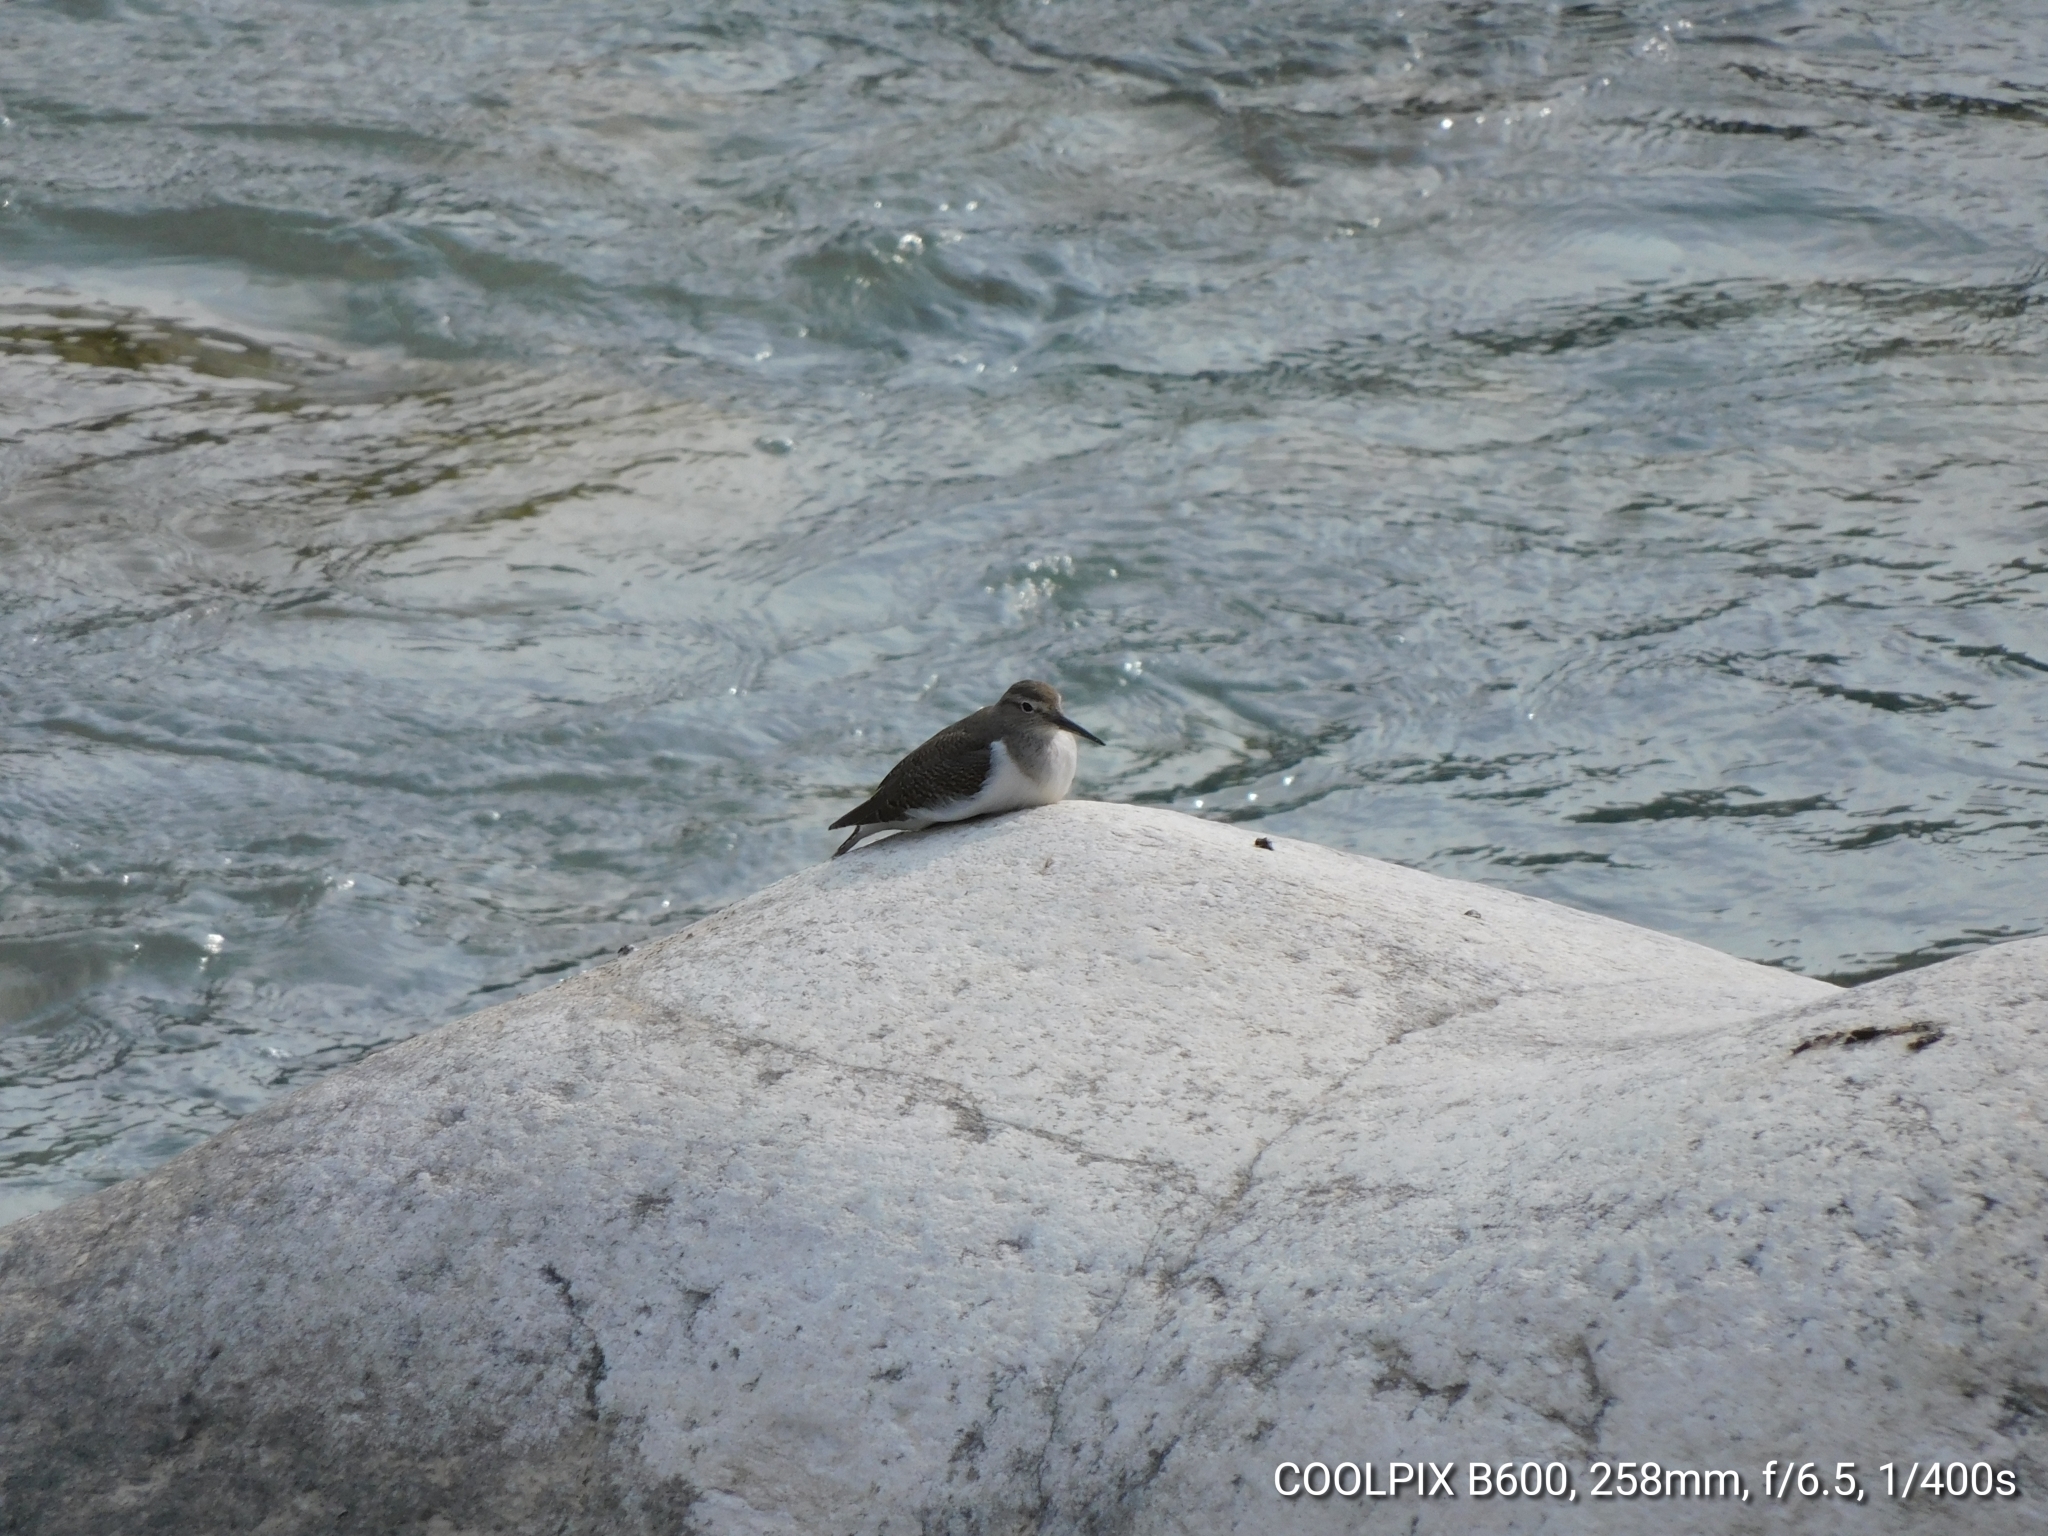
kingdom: Animalia
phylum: Chordata
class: Aves
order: Charadriiformes
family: Scolopacidae
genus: Actitis
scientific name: Actitis hypoleucos
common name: Common sandpiper
